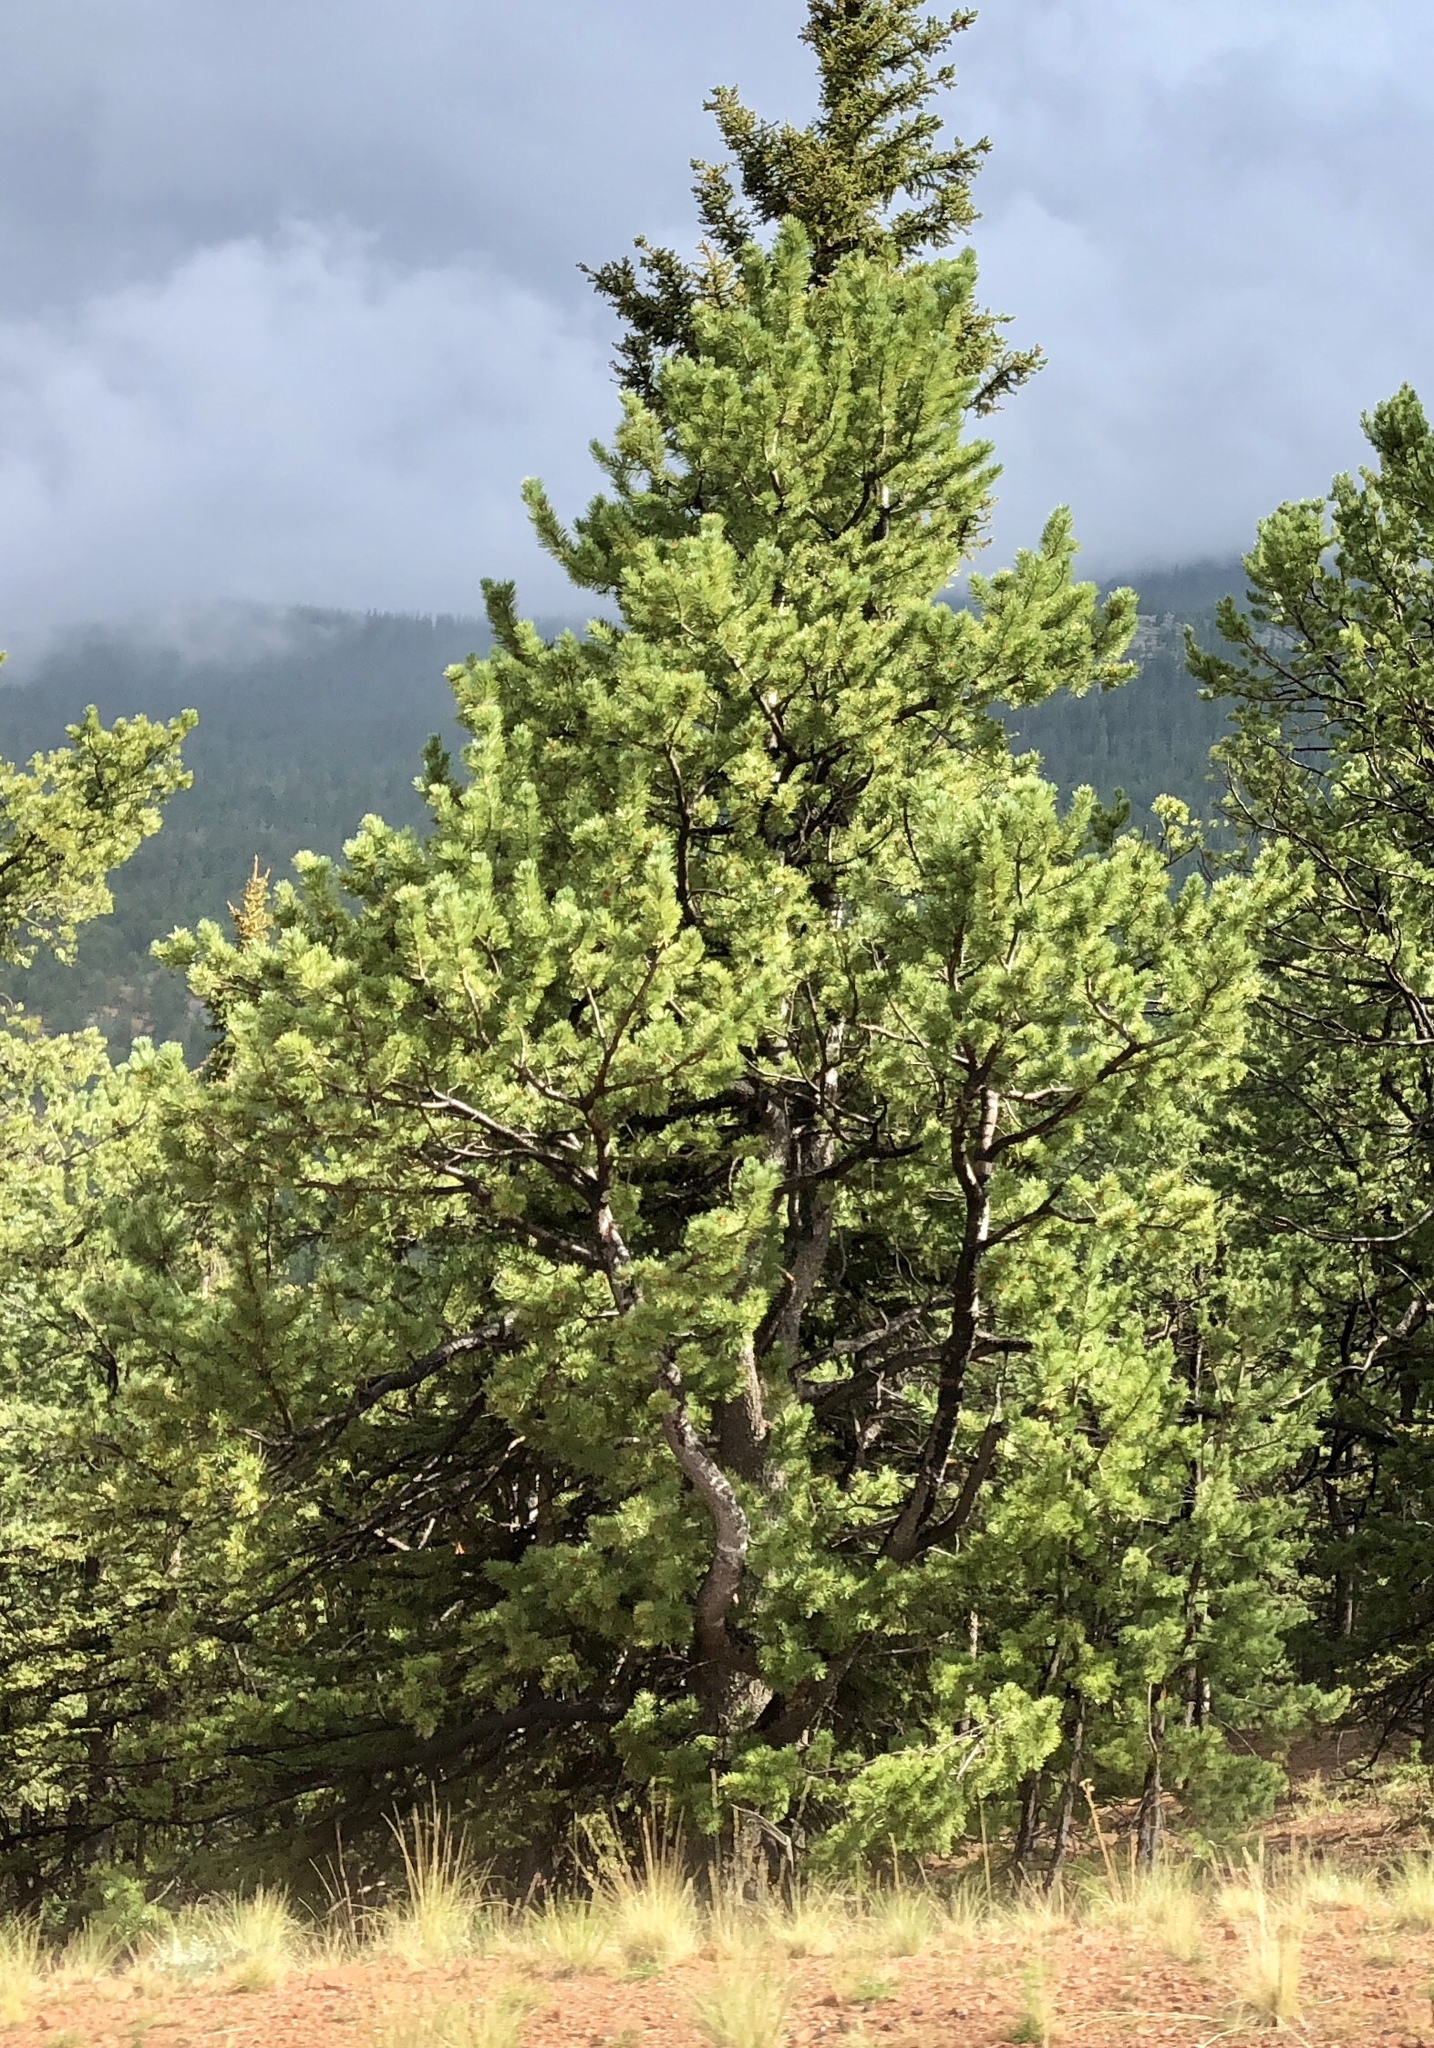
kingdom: Plantae
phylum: Tracheophyta
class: Pinopsida
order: Pinales
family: Pinaceae
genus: Pinus
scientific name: Pinus flexilis
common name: Limber pine
